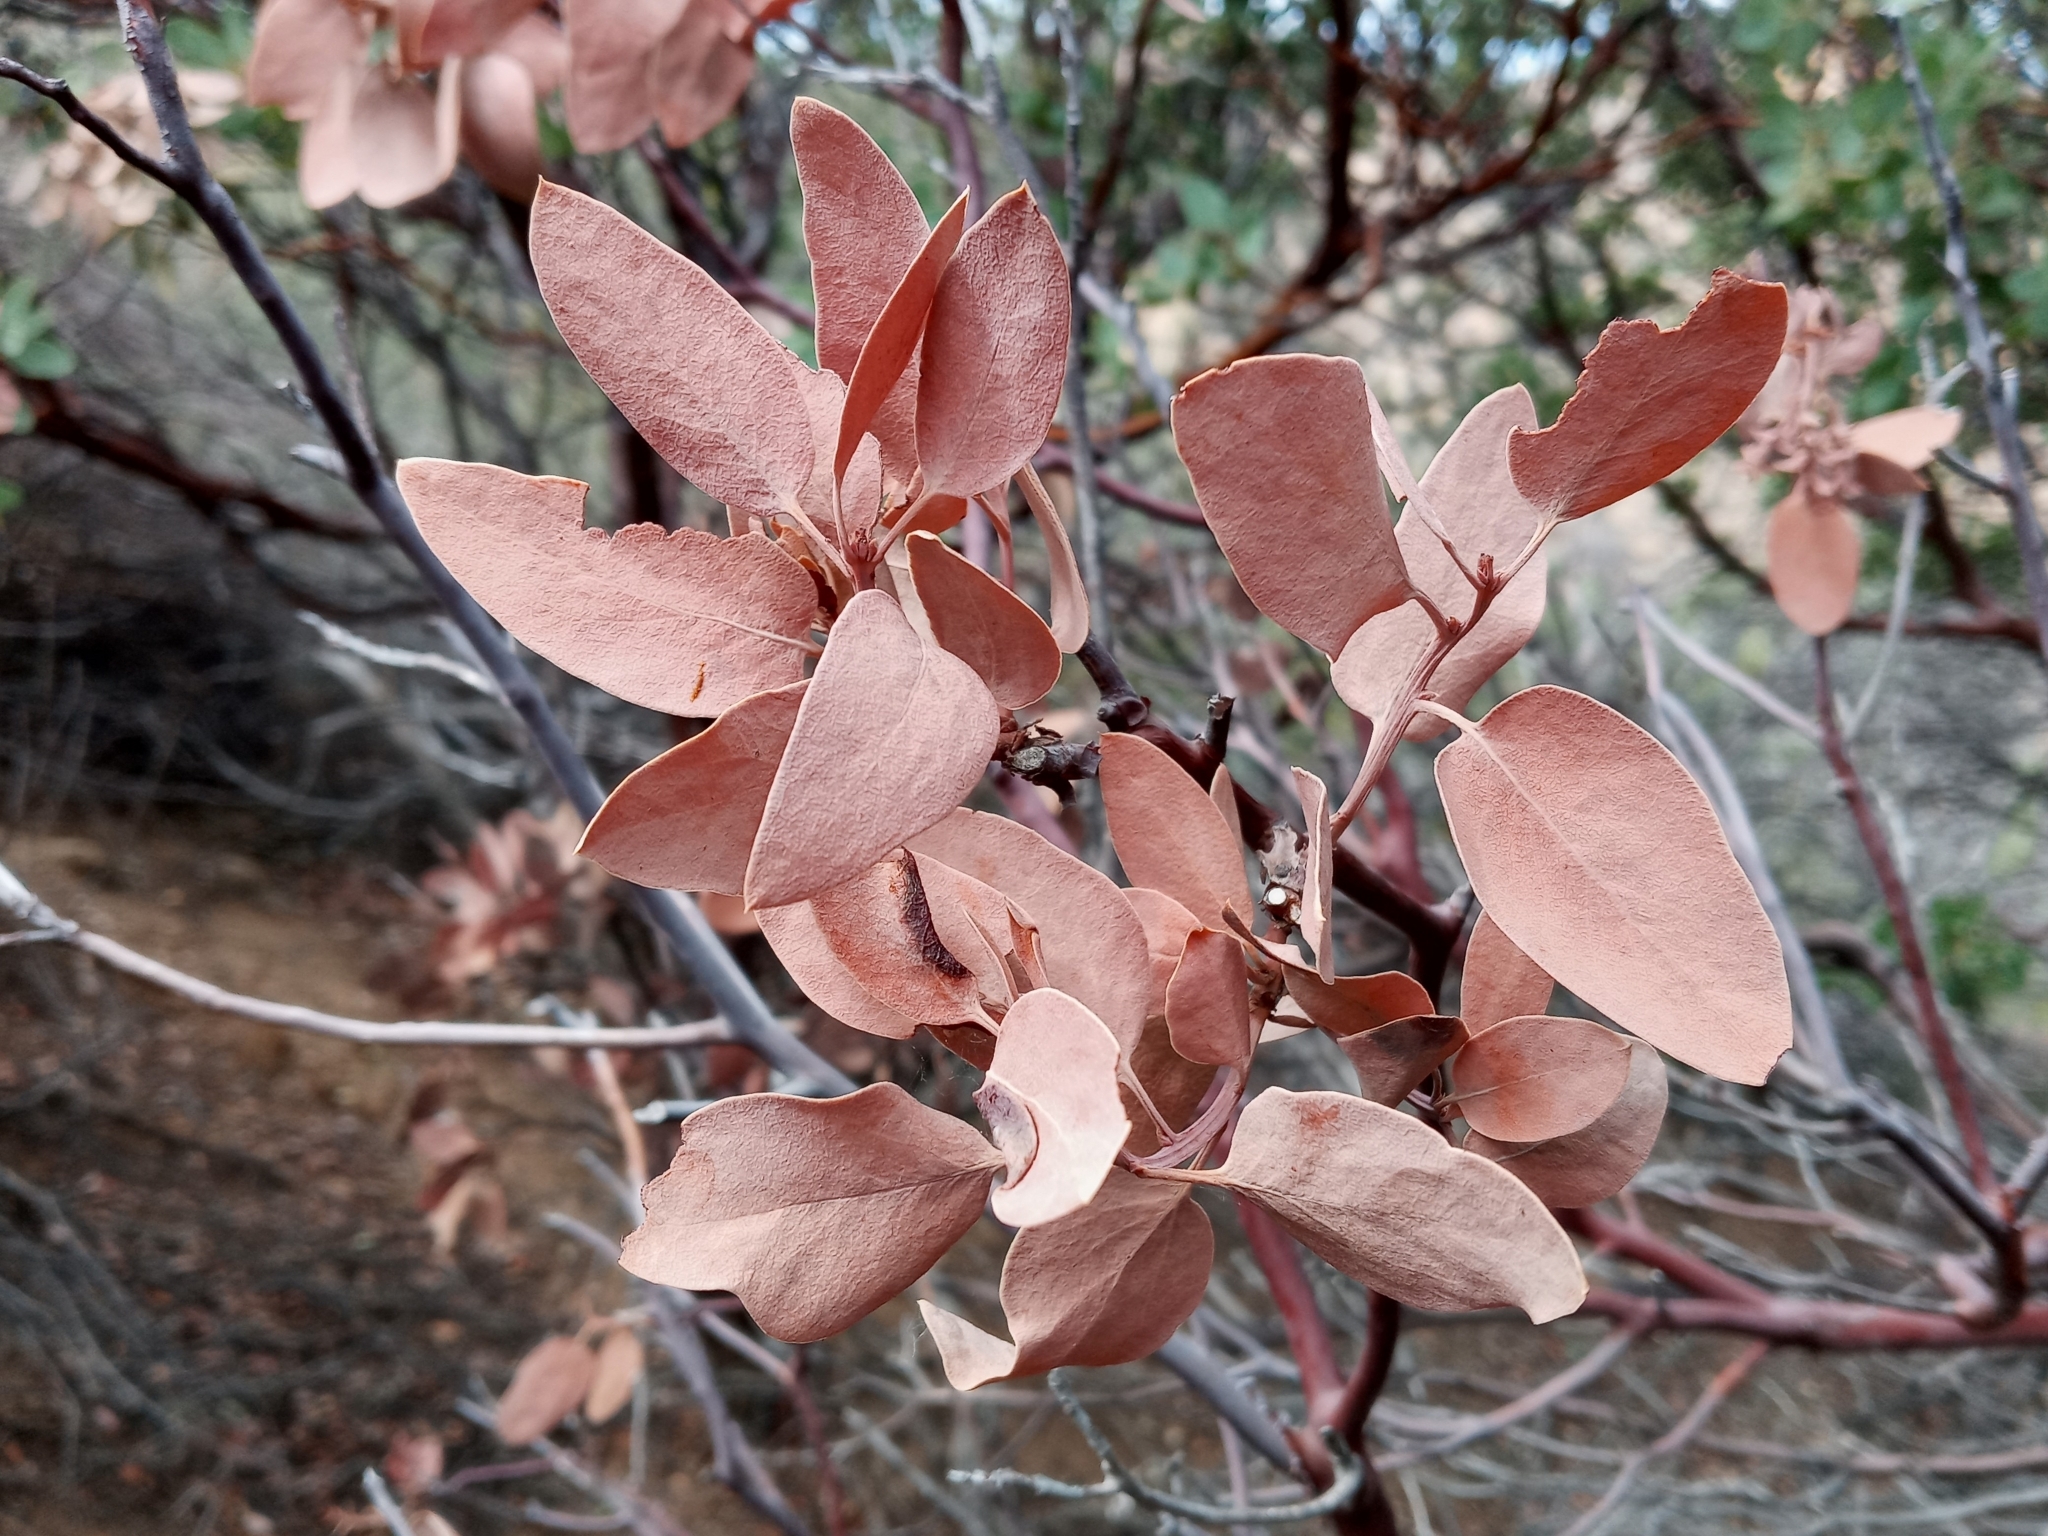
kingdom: Plantae
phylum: Tracheophyta
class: Magnoliopsida
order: Ericales
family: Ericaceae
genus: Arctostaphylos
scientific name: Arctostaphylos glauca
